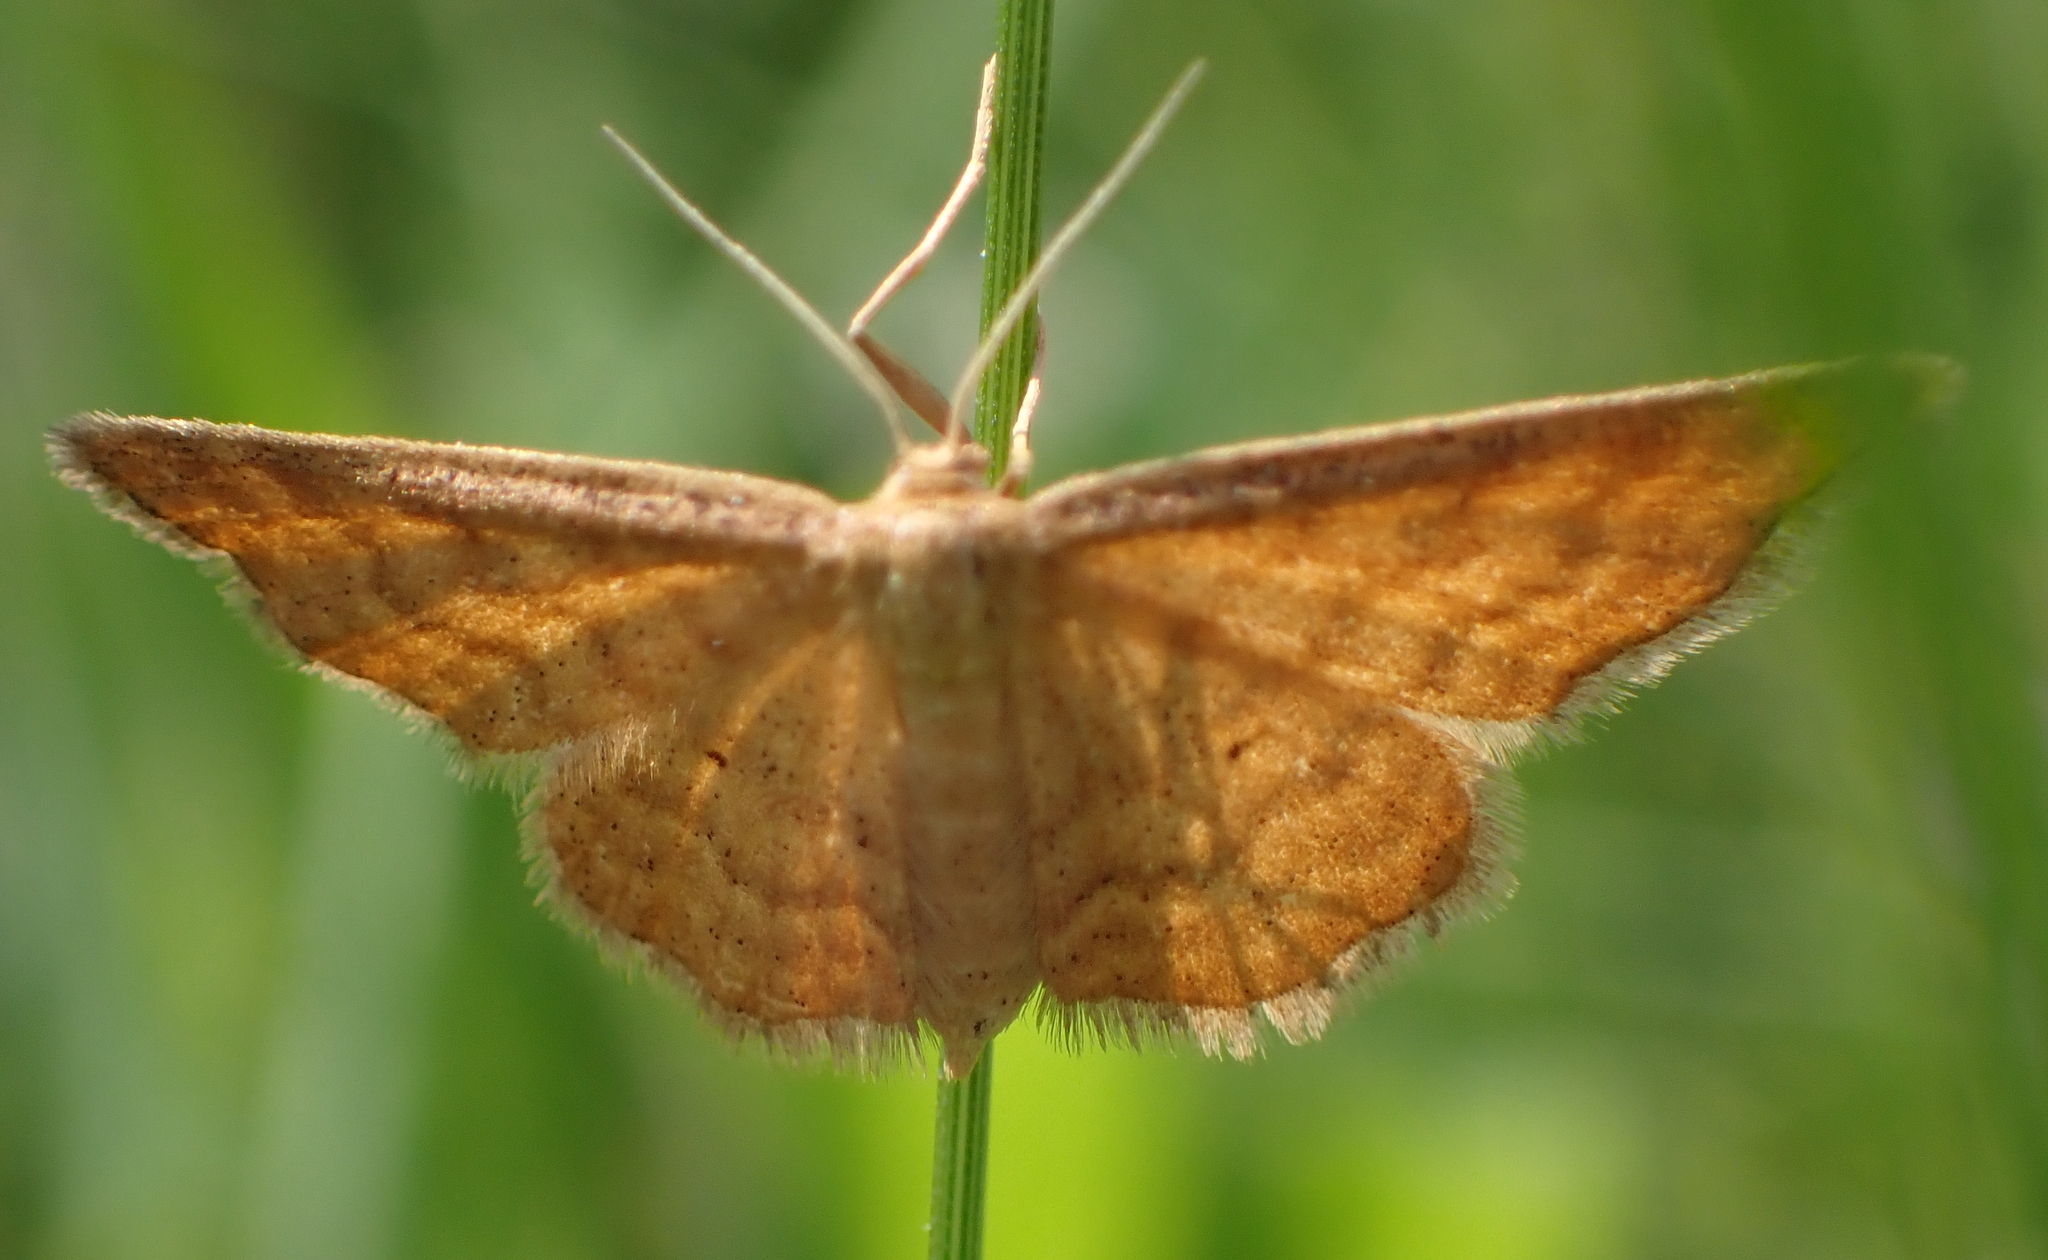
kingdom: Animalia
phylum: Arthropoda
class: Insecta
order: Lepidoptera
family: Geometridae
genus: Idaea
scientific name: Idaea serpentata
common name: Ochraceous wave
